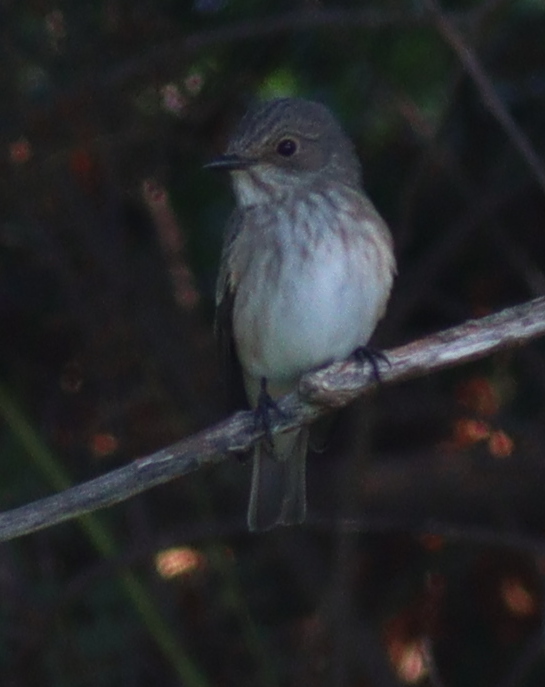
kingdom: Animalia
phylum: Chordata
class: Aves
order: Passeriformes
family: Muscicapidae
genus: Muscicapa
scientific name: Muscicapa striata
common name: Spotted flycatcher
